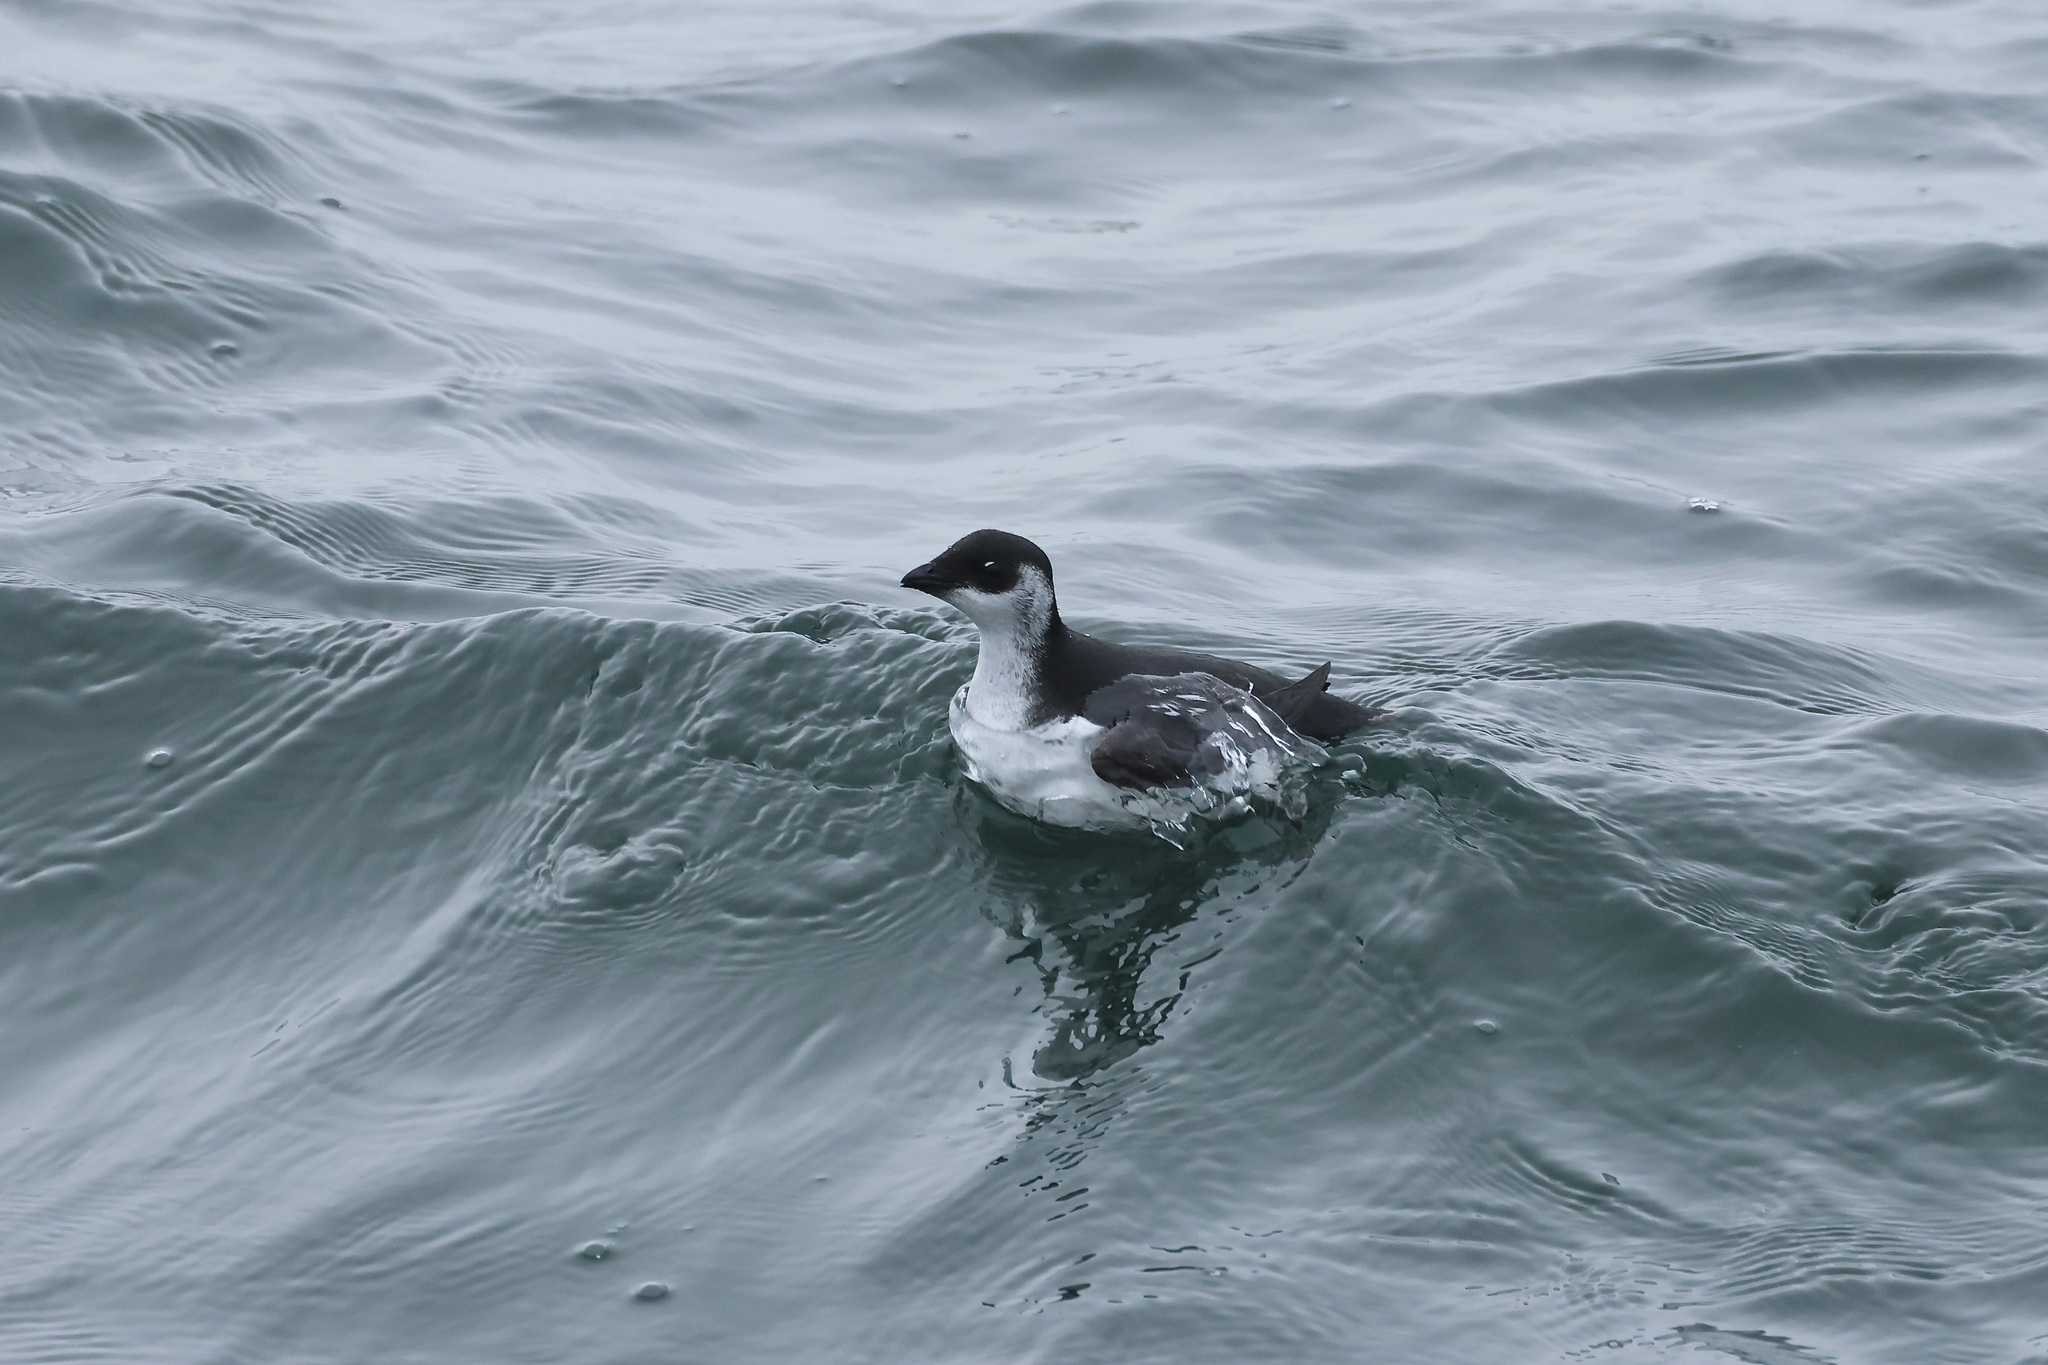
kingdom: Animalia
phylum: Chordata
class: Aves
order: Charadriiformes
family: Alcidae
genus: Alle
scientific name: Alle alle
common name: Little auk
